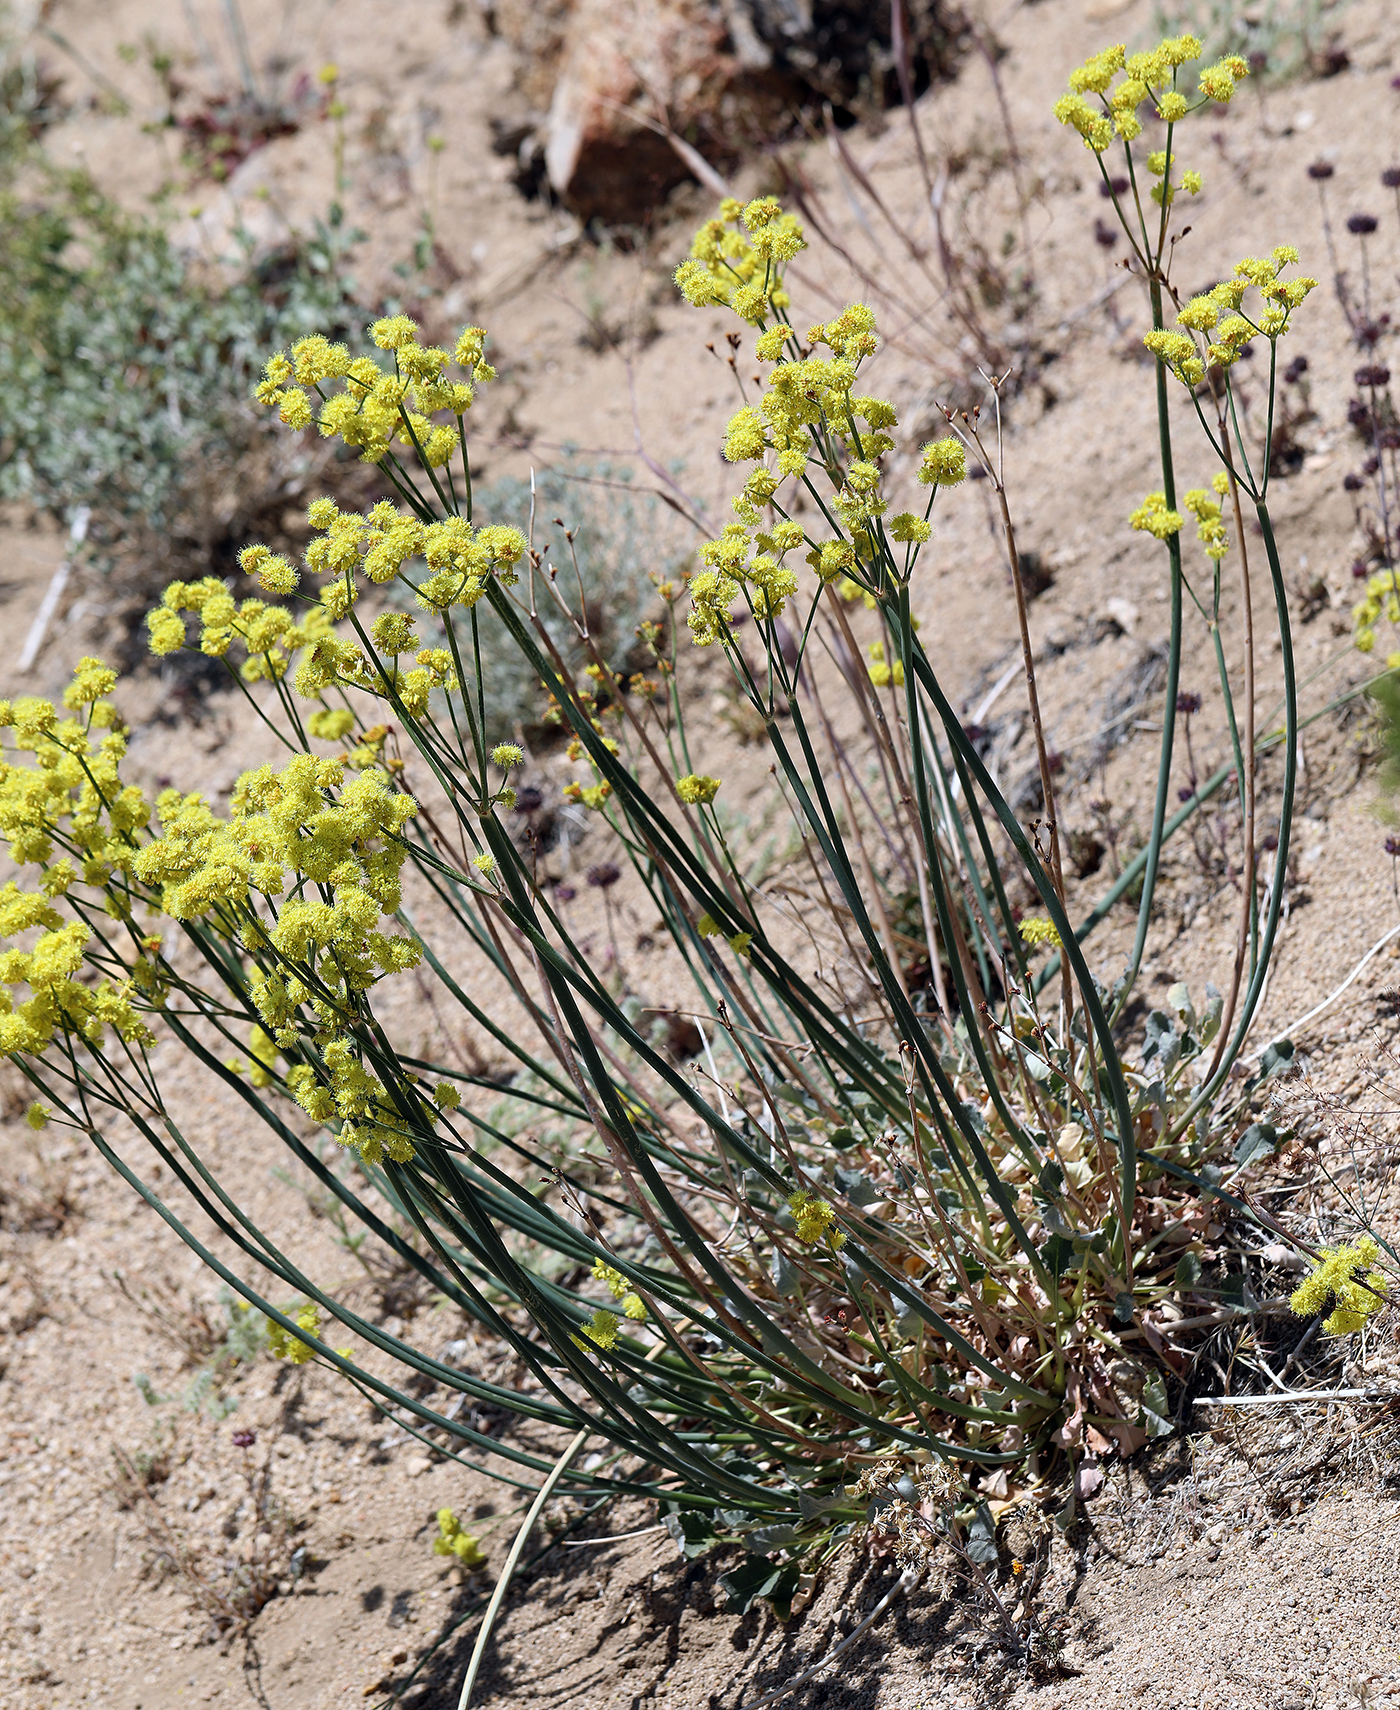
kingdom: Plantae
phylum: Tracheophyta
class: Magnoliopsida
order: Caryophyllales
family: Polygonaceae
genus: Eriogonum
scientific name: Eriogonum nudum
